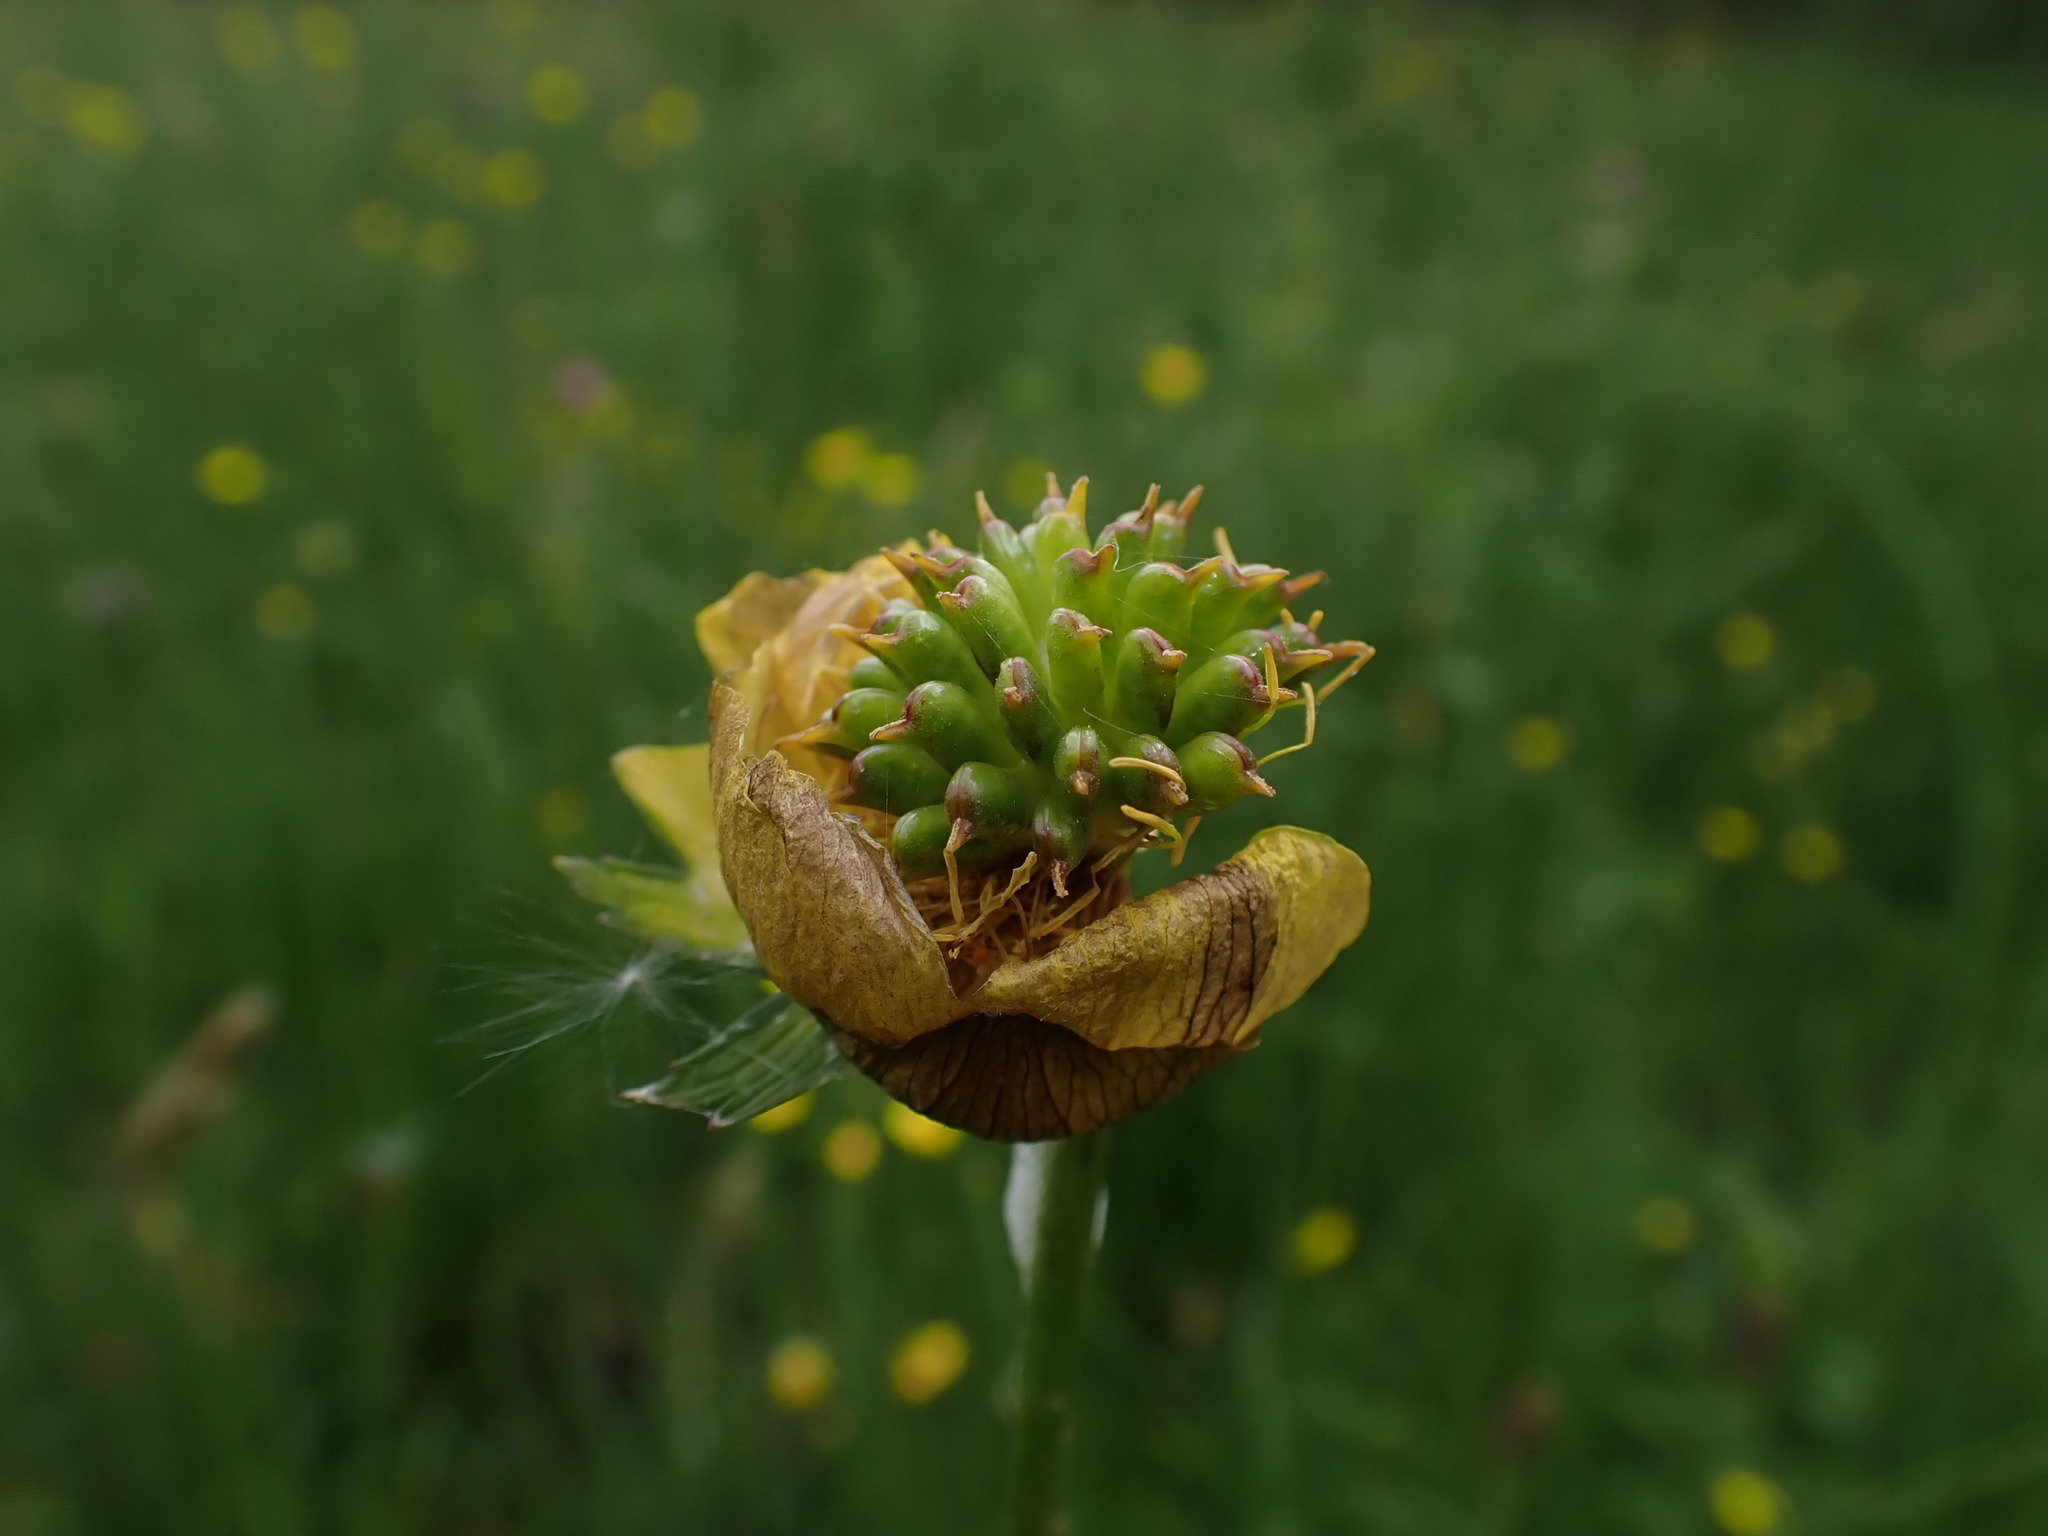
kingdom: Plantae
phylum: Tracheophyta
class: Magnoliopsida
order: Ranunculales
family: Ranunculaceae
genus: Trollius
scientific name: Trollius europaeus
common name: European globeflower
